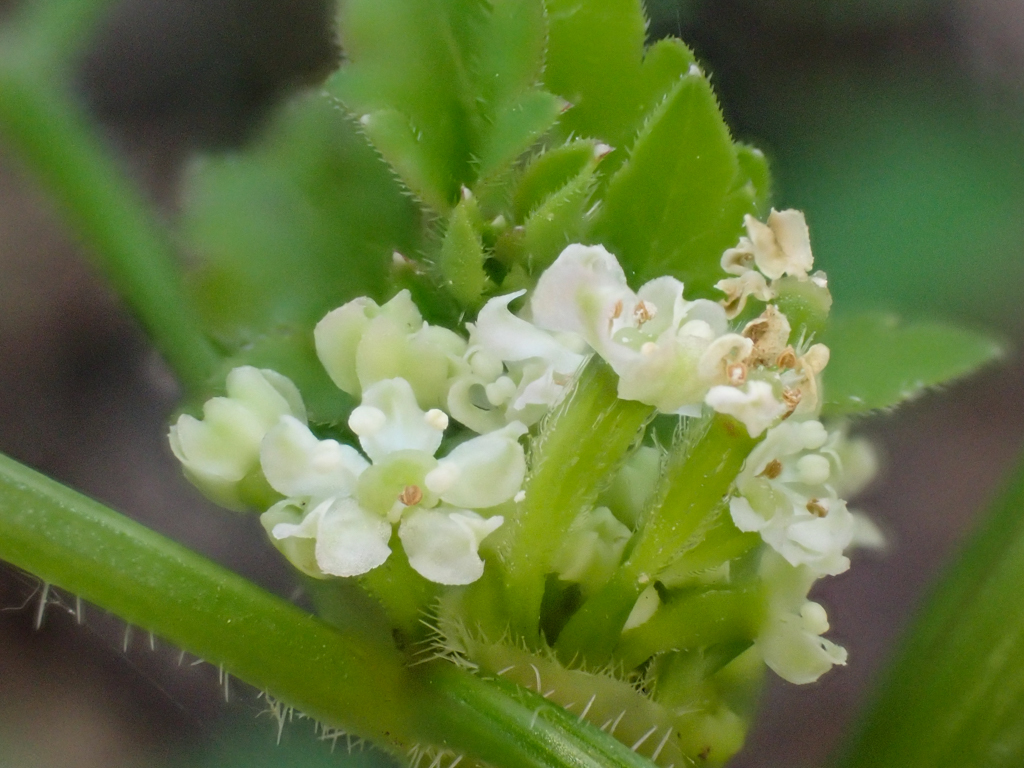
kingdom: Plantae
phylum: Tracheophyta
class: Magnoliopsida
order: Apiales
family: Apiaceae
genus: Osmorhiza
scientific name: Osmorhiza berteroi
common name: Mountain sweet cicely
